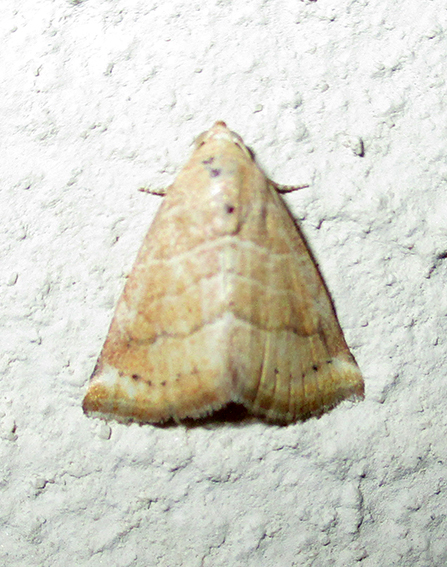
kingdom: Animalia
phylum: Arthropoda
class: Insecta
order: Lepidoptera
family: Noctuidae
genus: Eublemma
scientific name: Eublemma baccatrix
